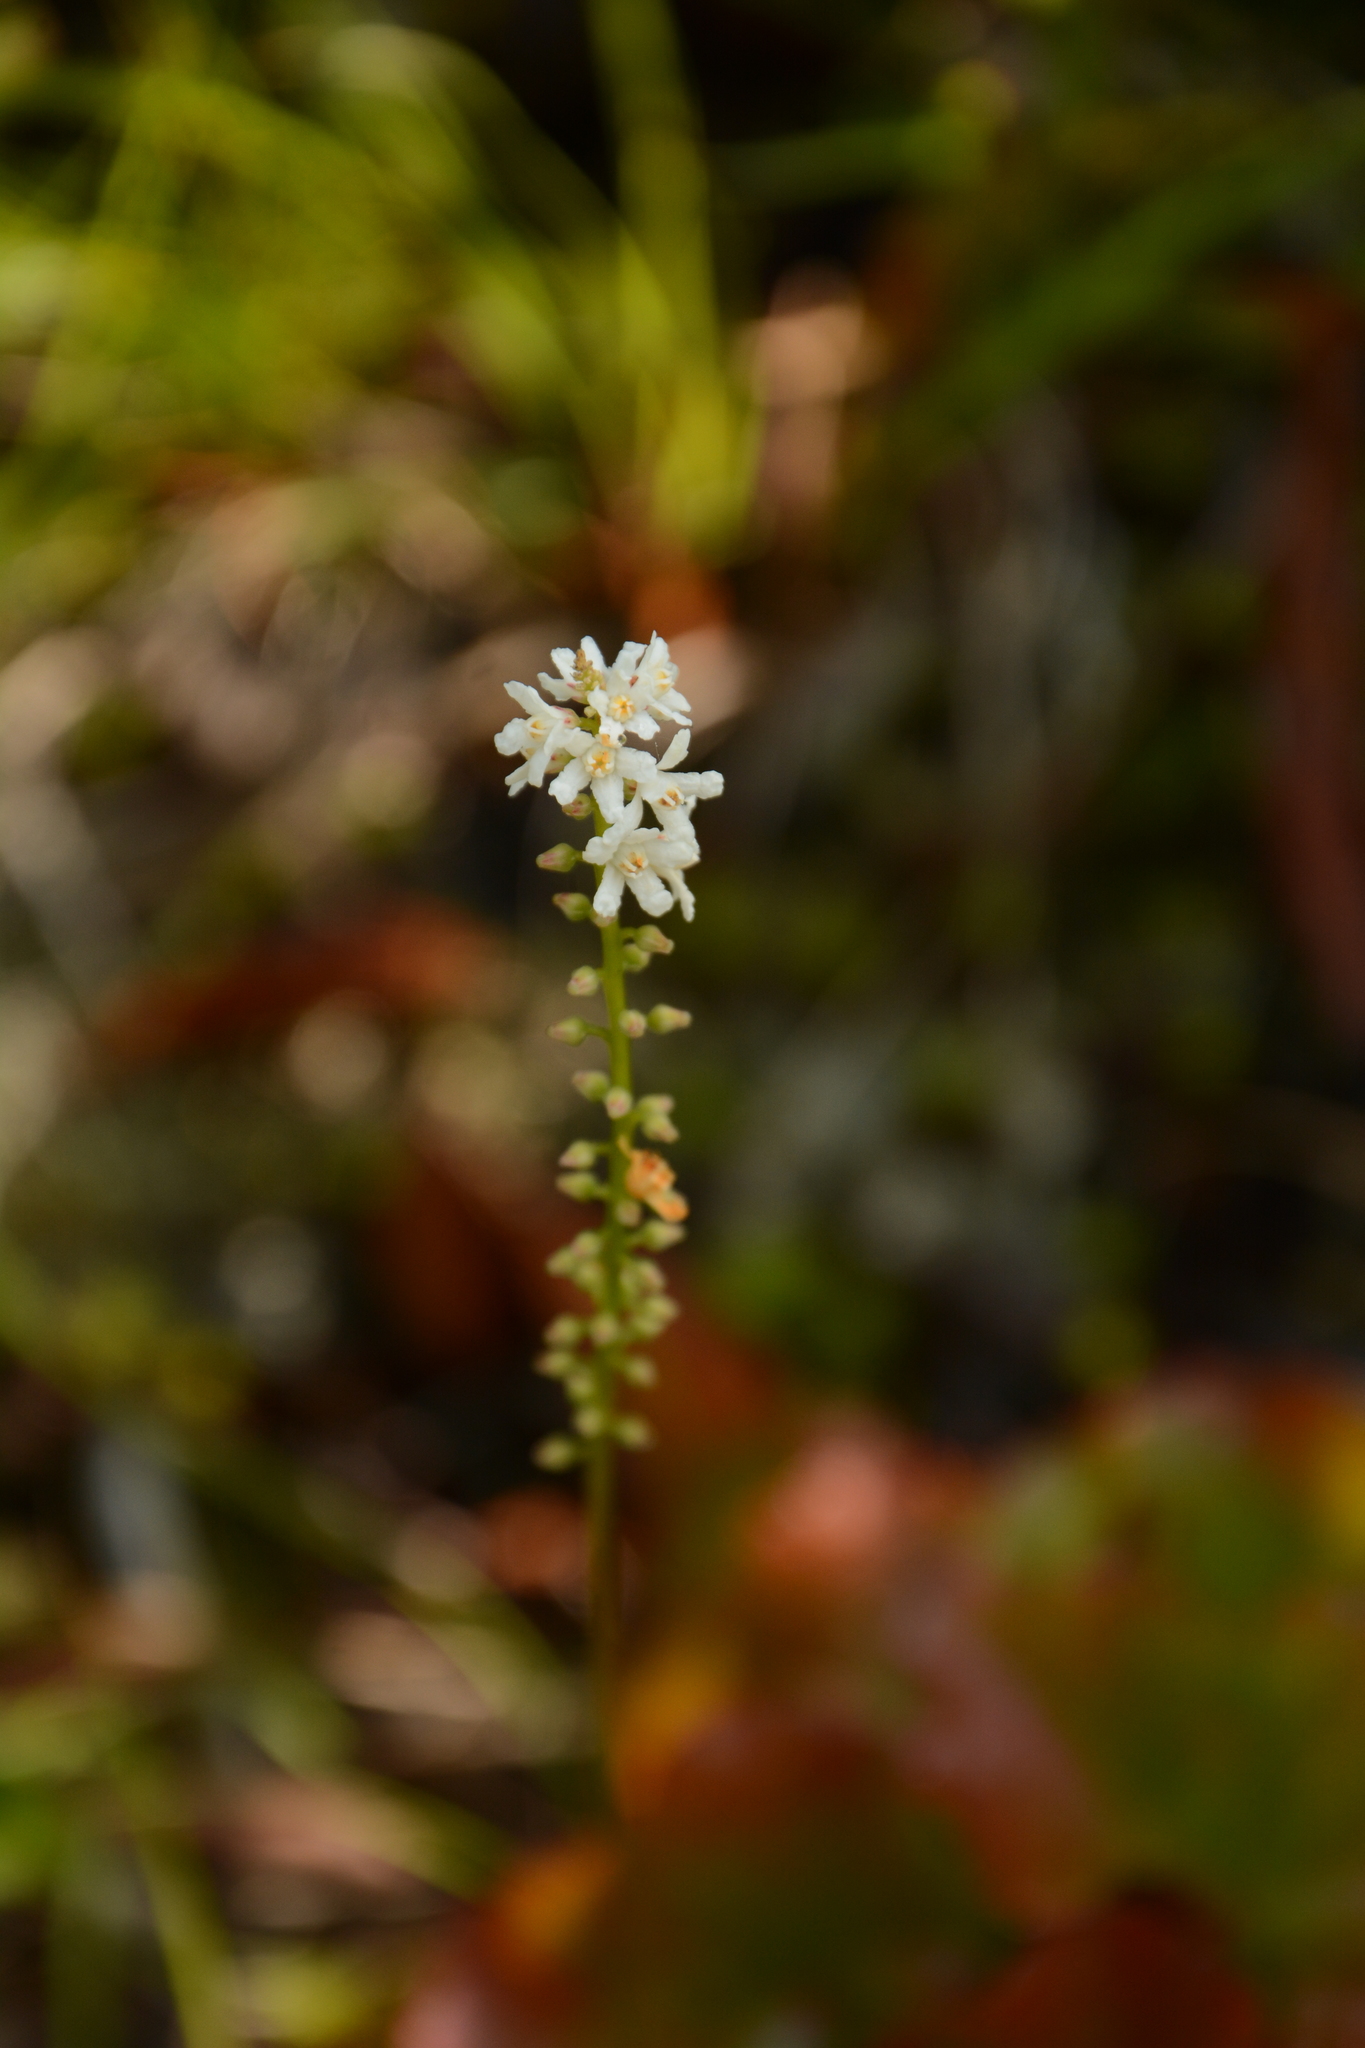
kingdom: Plantae
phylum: Tracheophyta
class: Magnoliopsida
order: Ericales
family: Diapensiaceae
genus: Galax
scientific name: Galax urceolata
